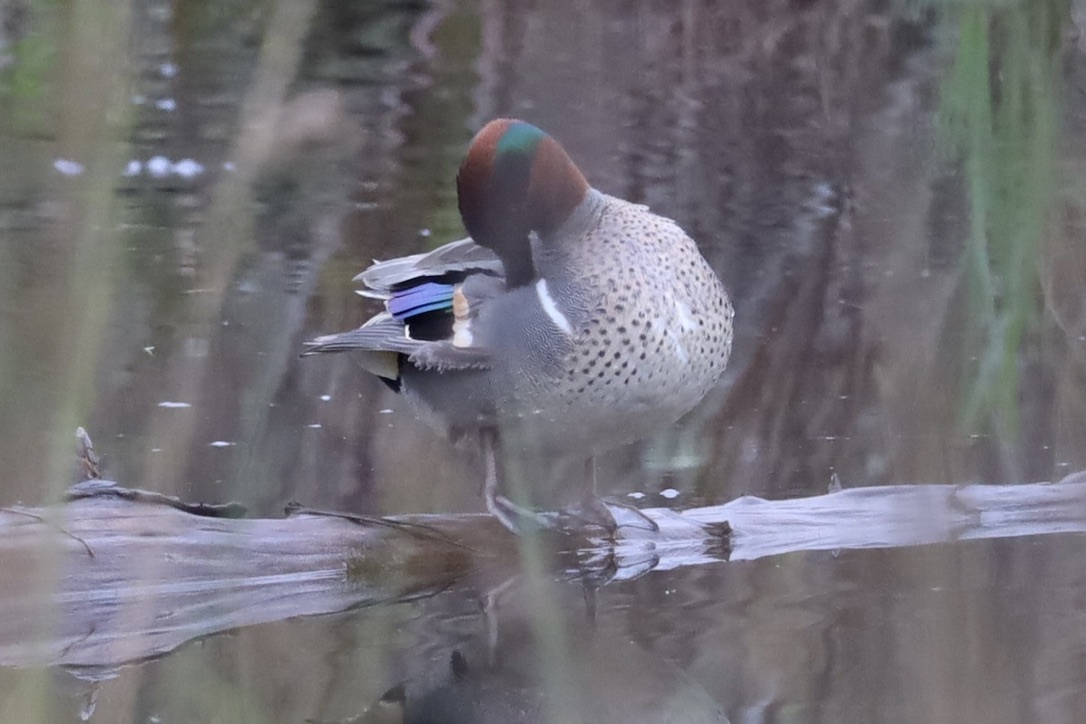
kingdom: Animalia
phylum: Chordata
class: Aves
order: Anseriformes
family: Anatidae
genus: Anas
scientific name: Anas crecca
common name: Eurasian teal
